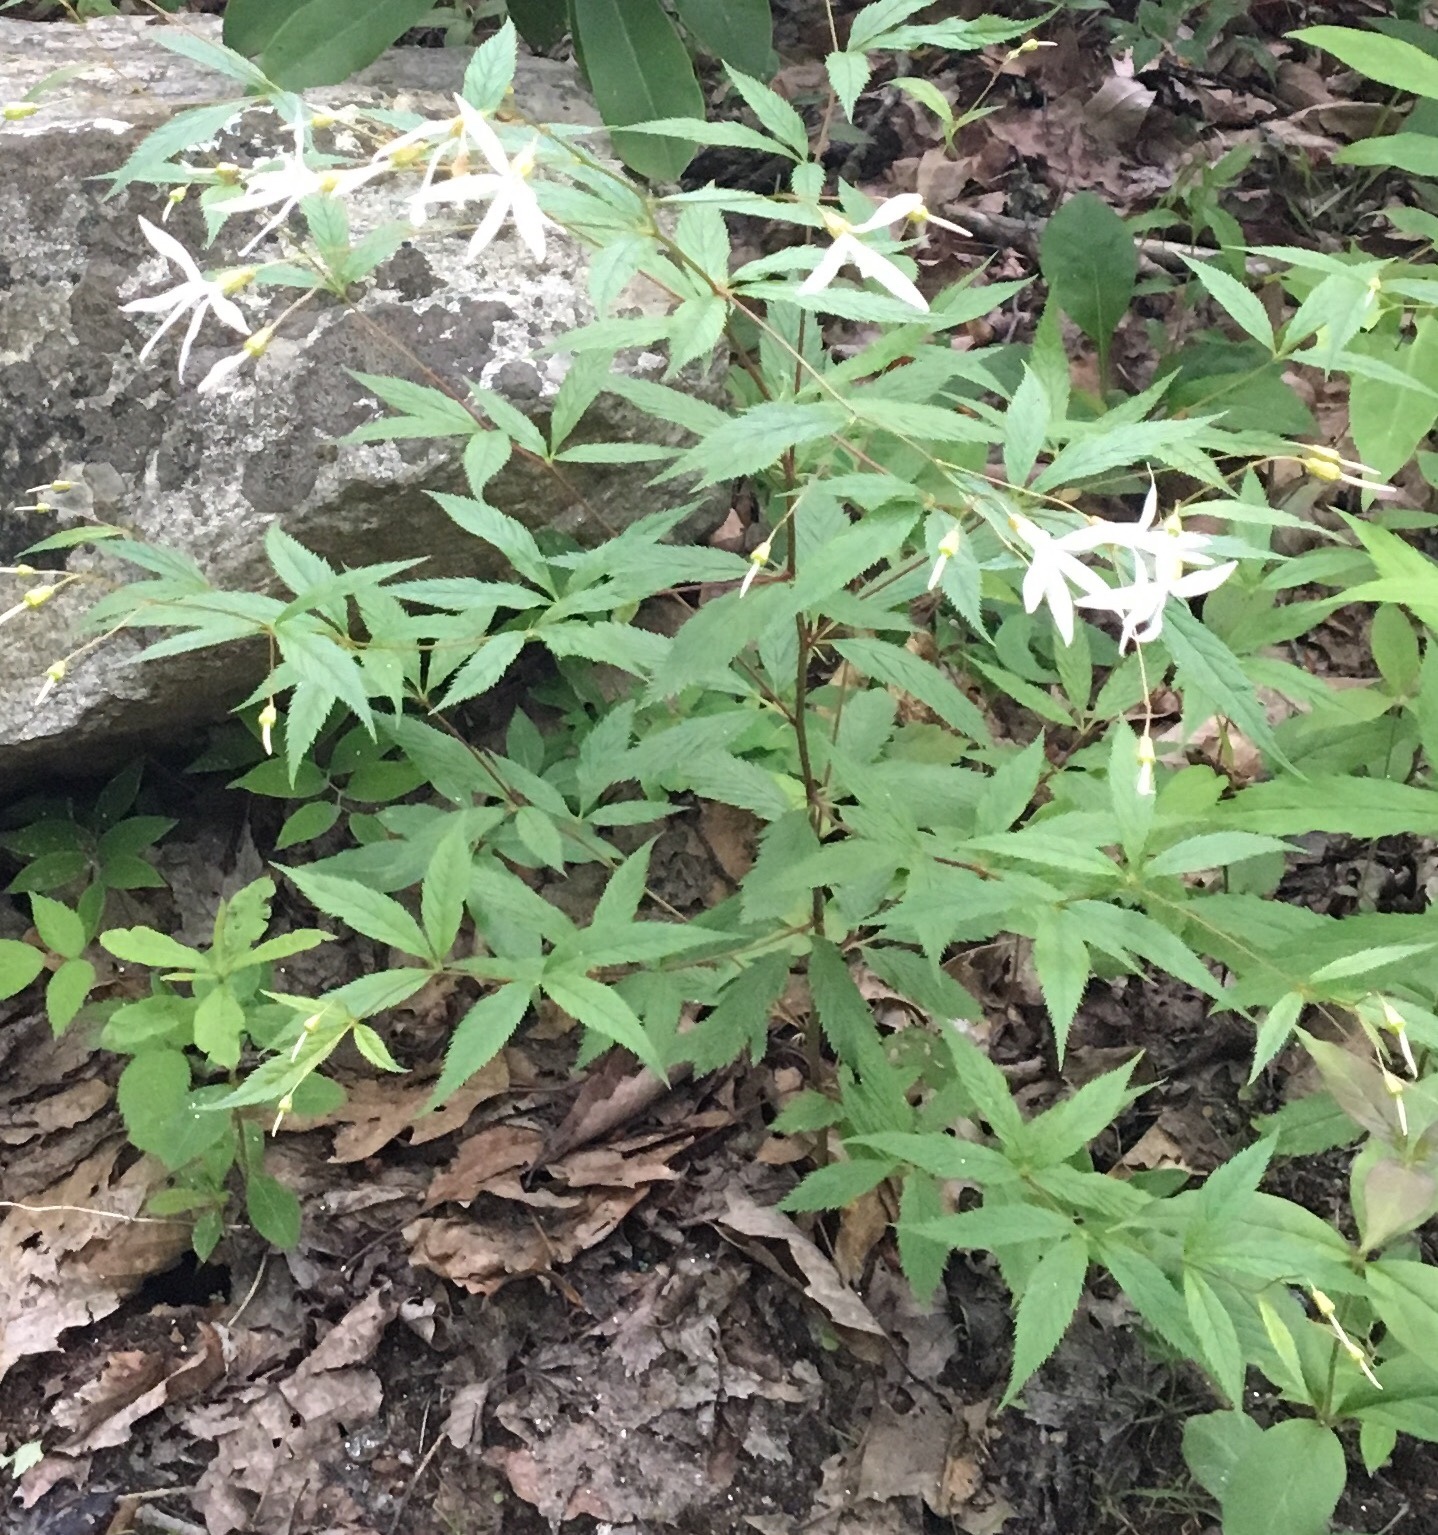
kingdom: Plantae
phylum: Tracheophyta
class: Magnoliopsida
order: Rosales
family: Rosaceae
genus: Gillenia
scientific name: Gillenia trifoliata
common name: Bowman's-root
